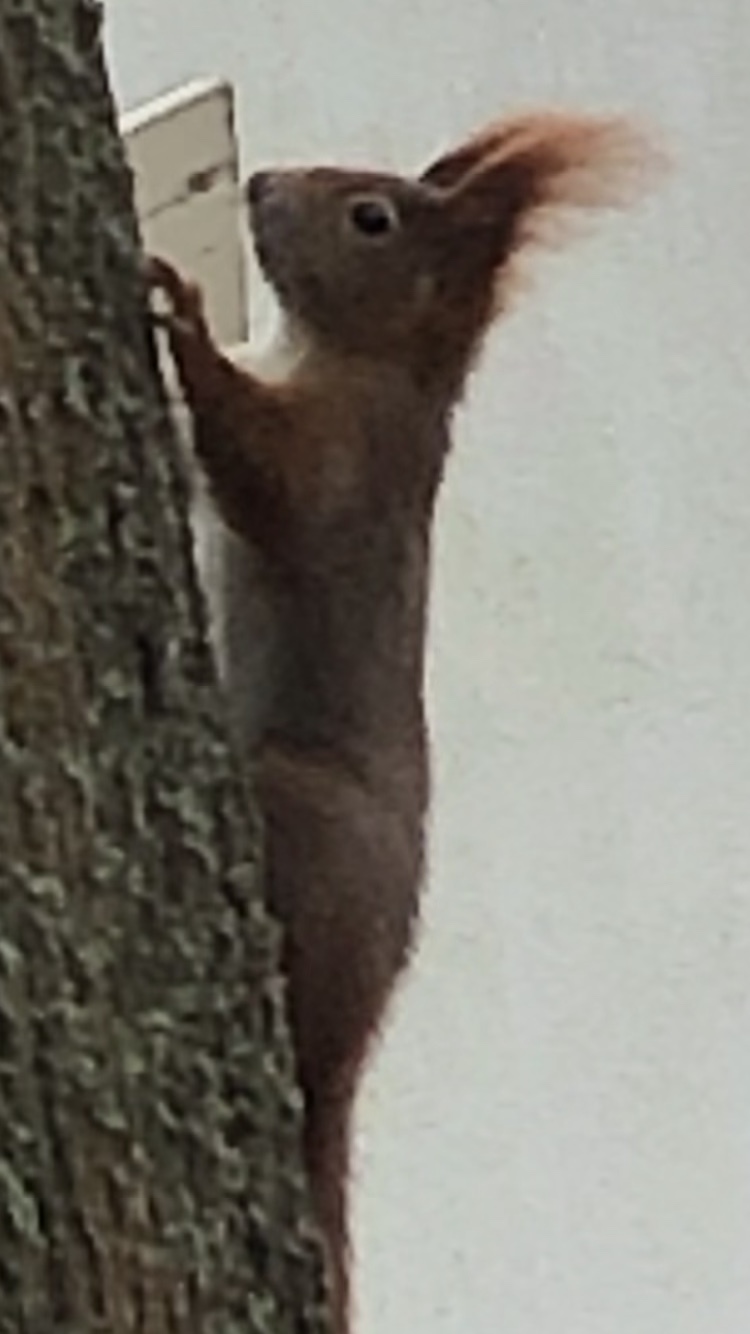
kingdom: Animalia
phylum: Chordata
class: Mammalia
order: Rodentia
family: Sciuridae
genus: Sciurus
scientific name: Sciurus vulgaris
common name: Eurasian red squirrel
